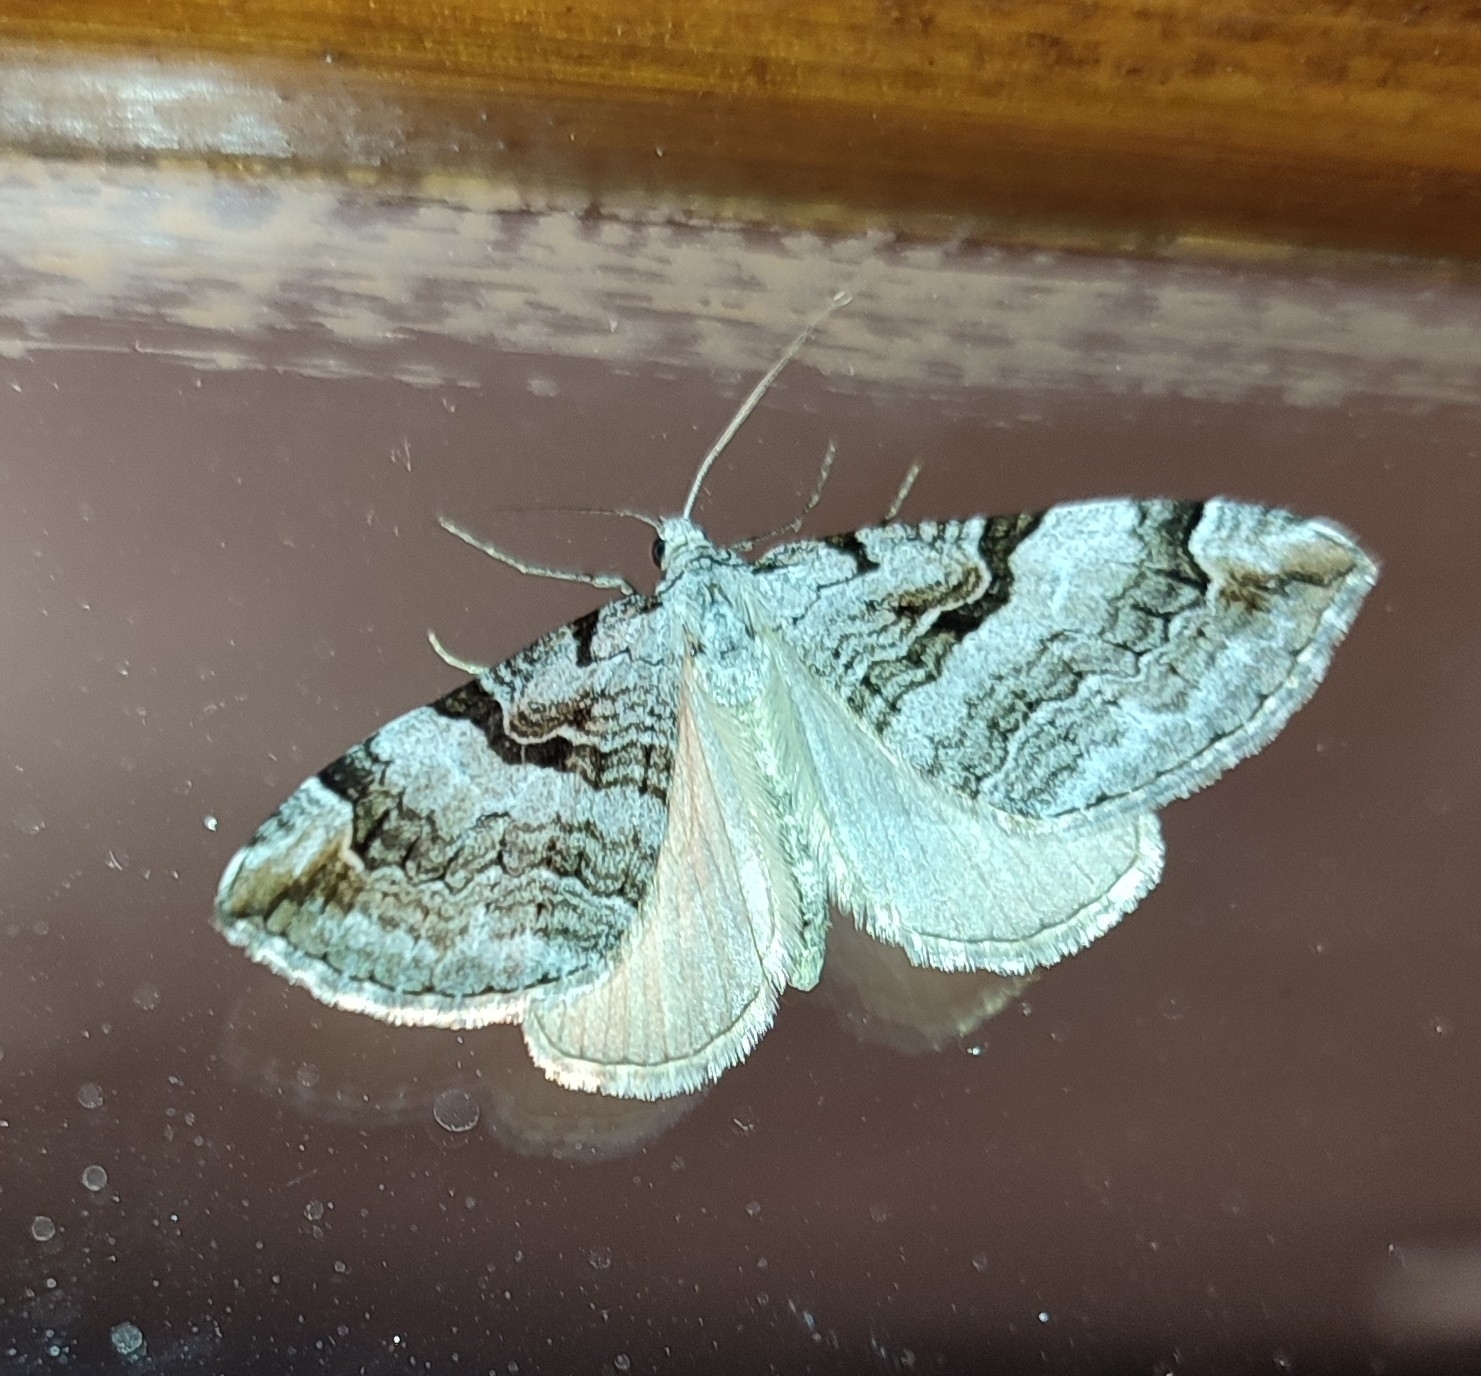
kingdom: Animalia
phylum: Arthropoda
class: Insecta
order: Lepidoptera
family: Geometridae
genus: Aplocera
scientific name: Aplocera praeformata
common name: Purple treble-bar
